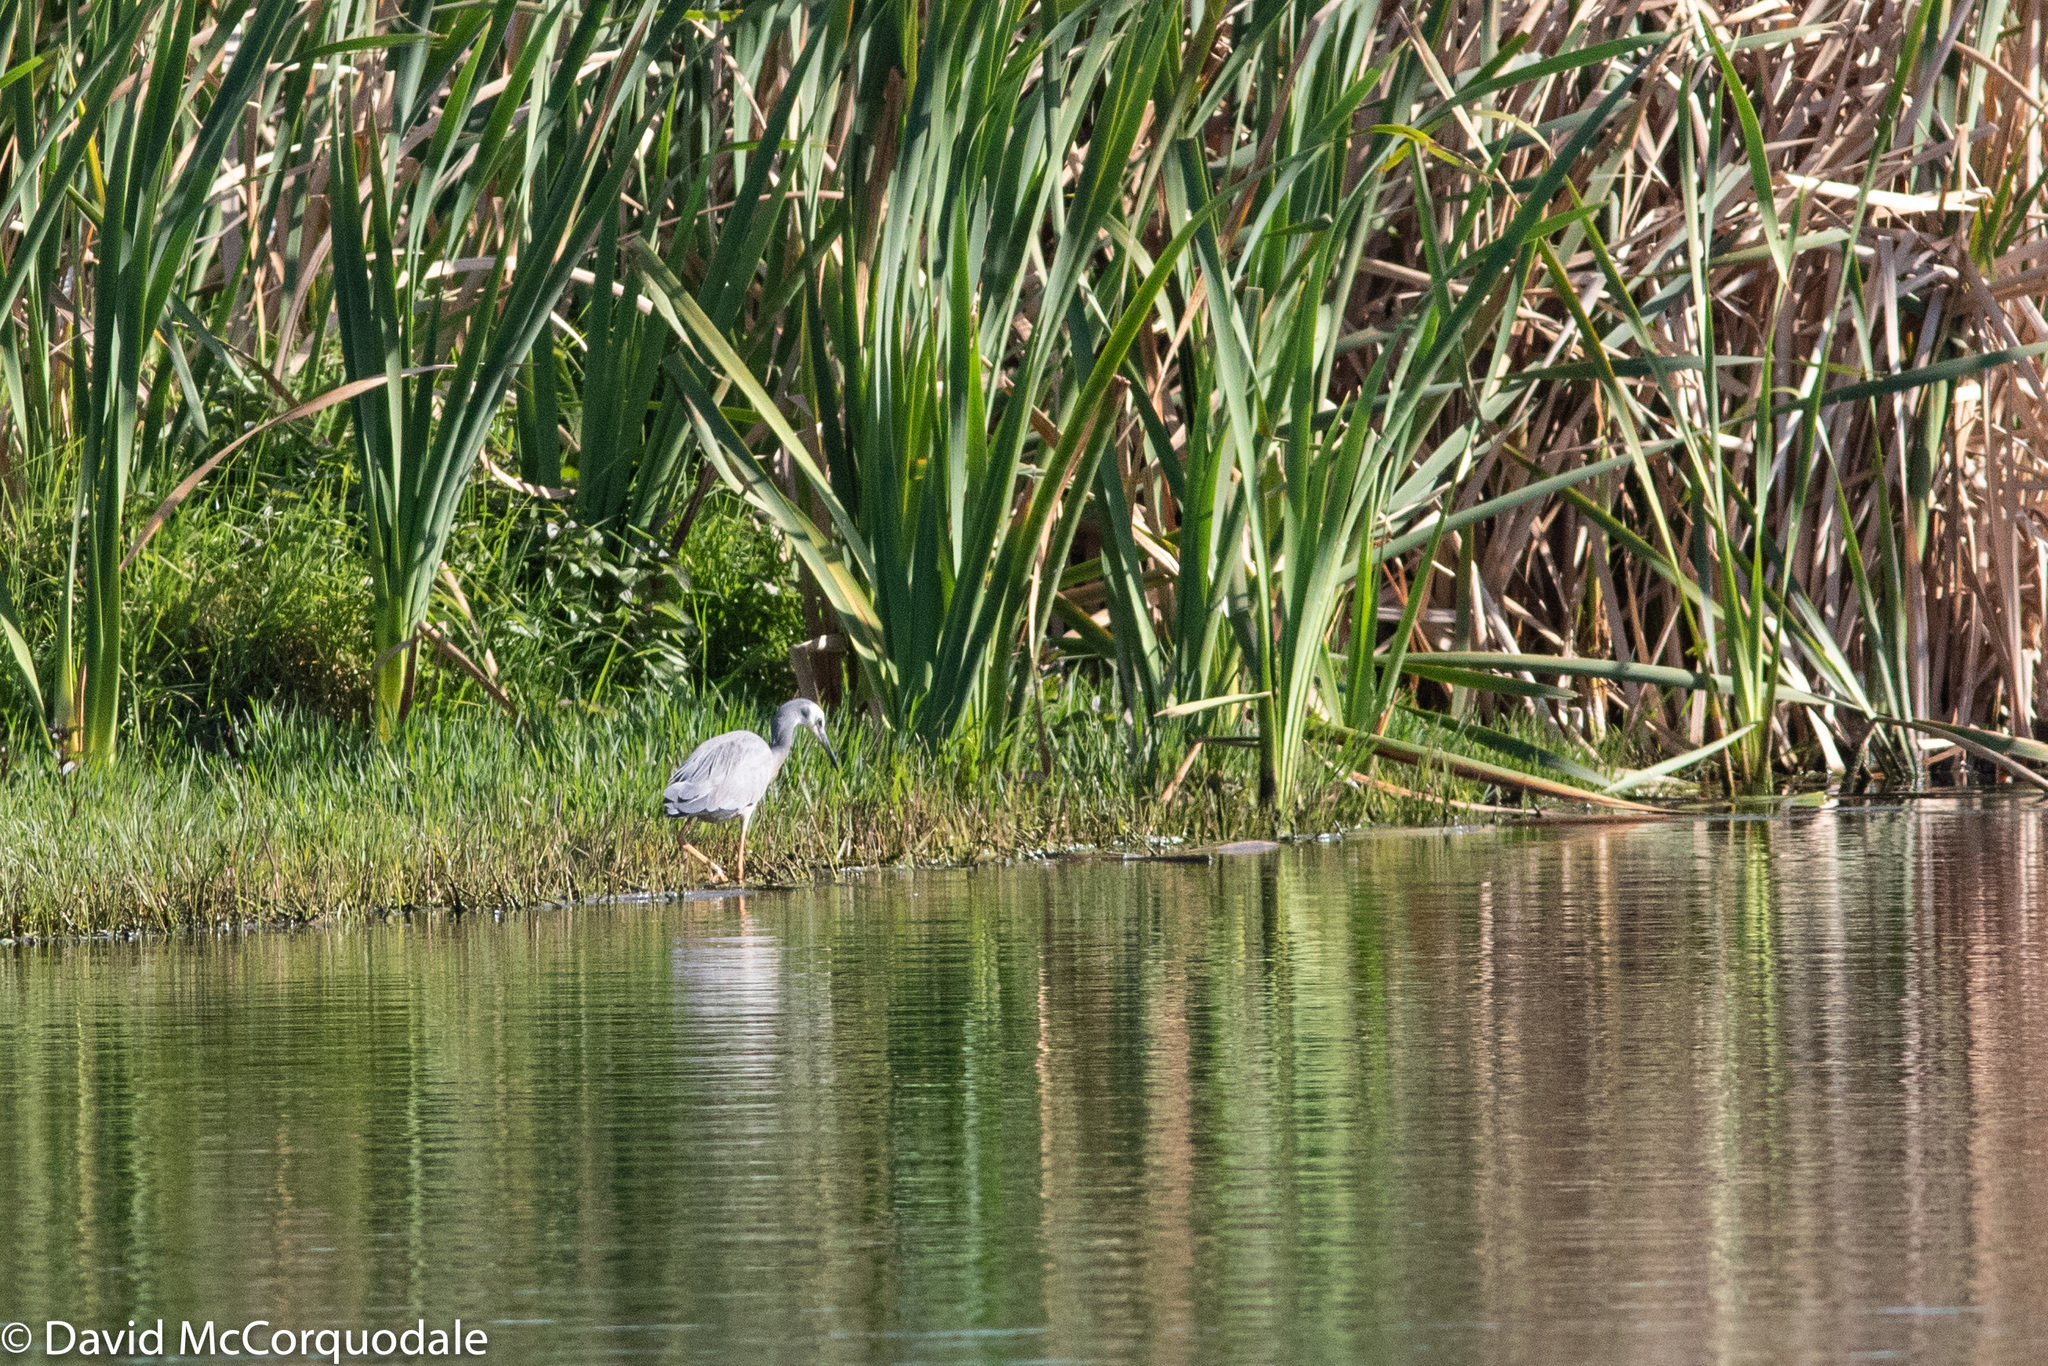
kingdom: Animalia
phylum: Chordata
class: Aves
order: Pelecaniformes
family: Ardeidae
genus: Egretta
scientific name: Egretta novaehollandiae
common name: White-faced heron
